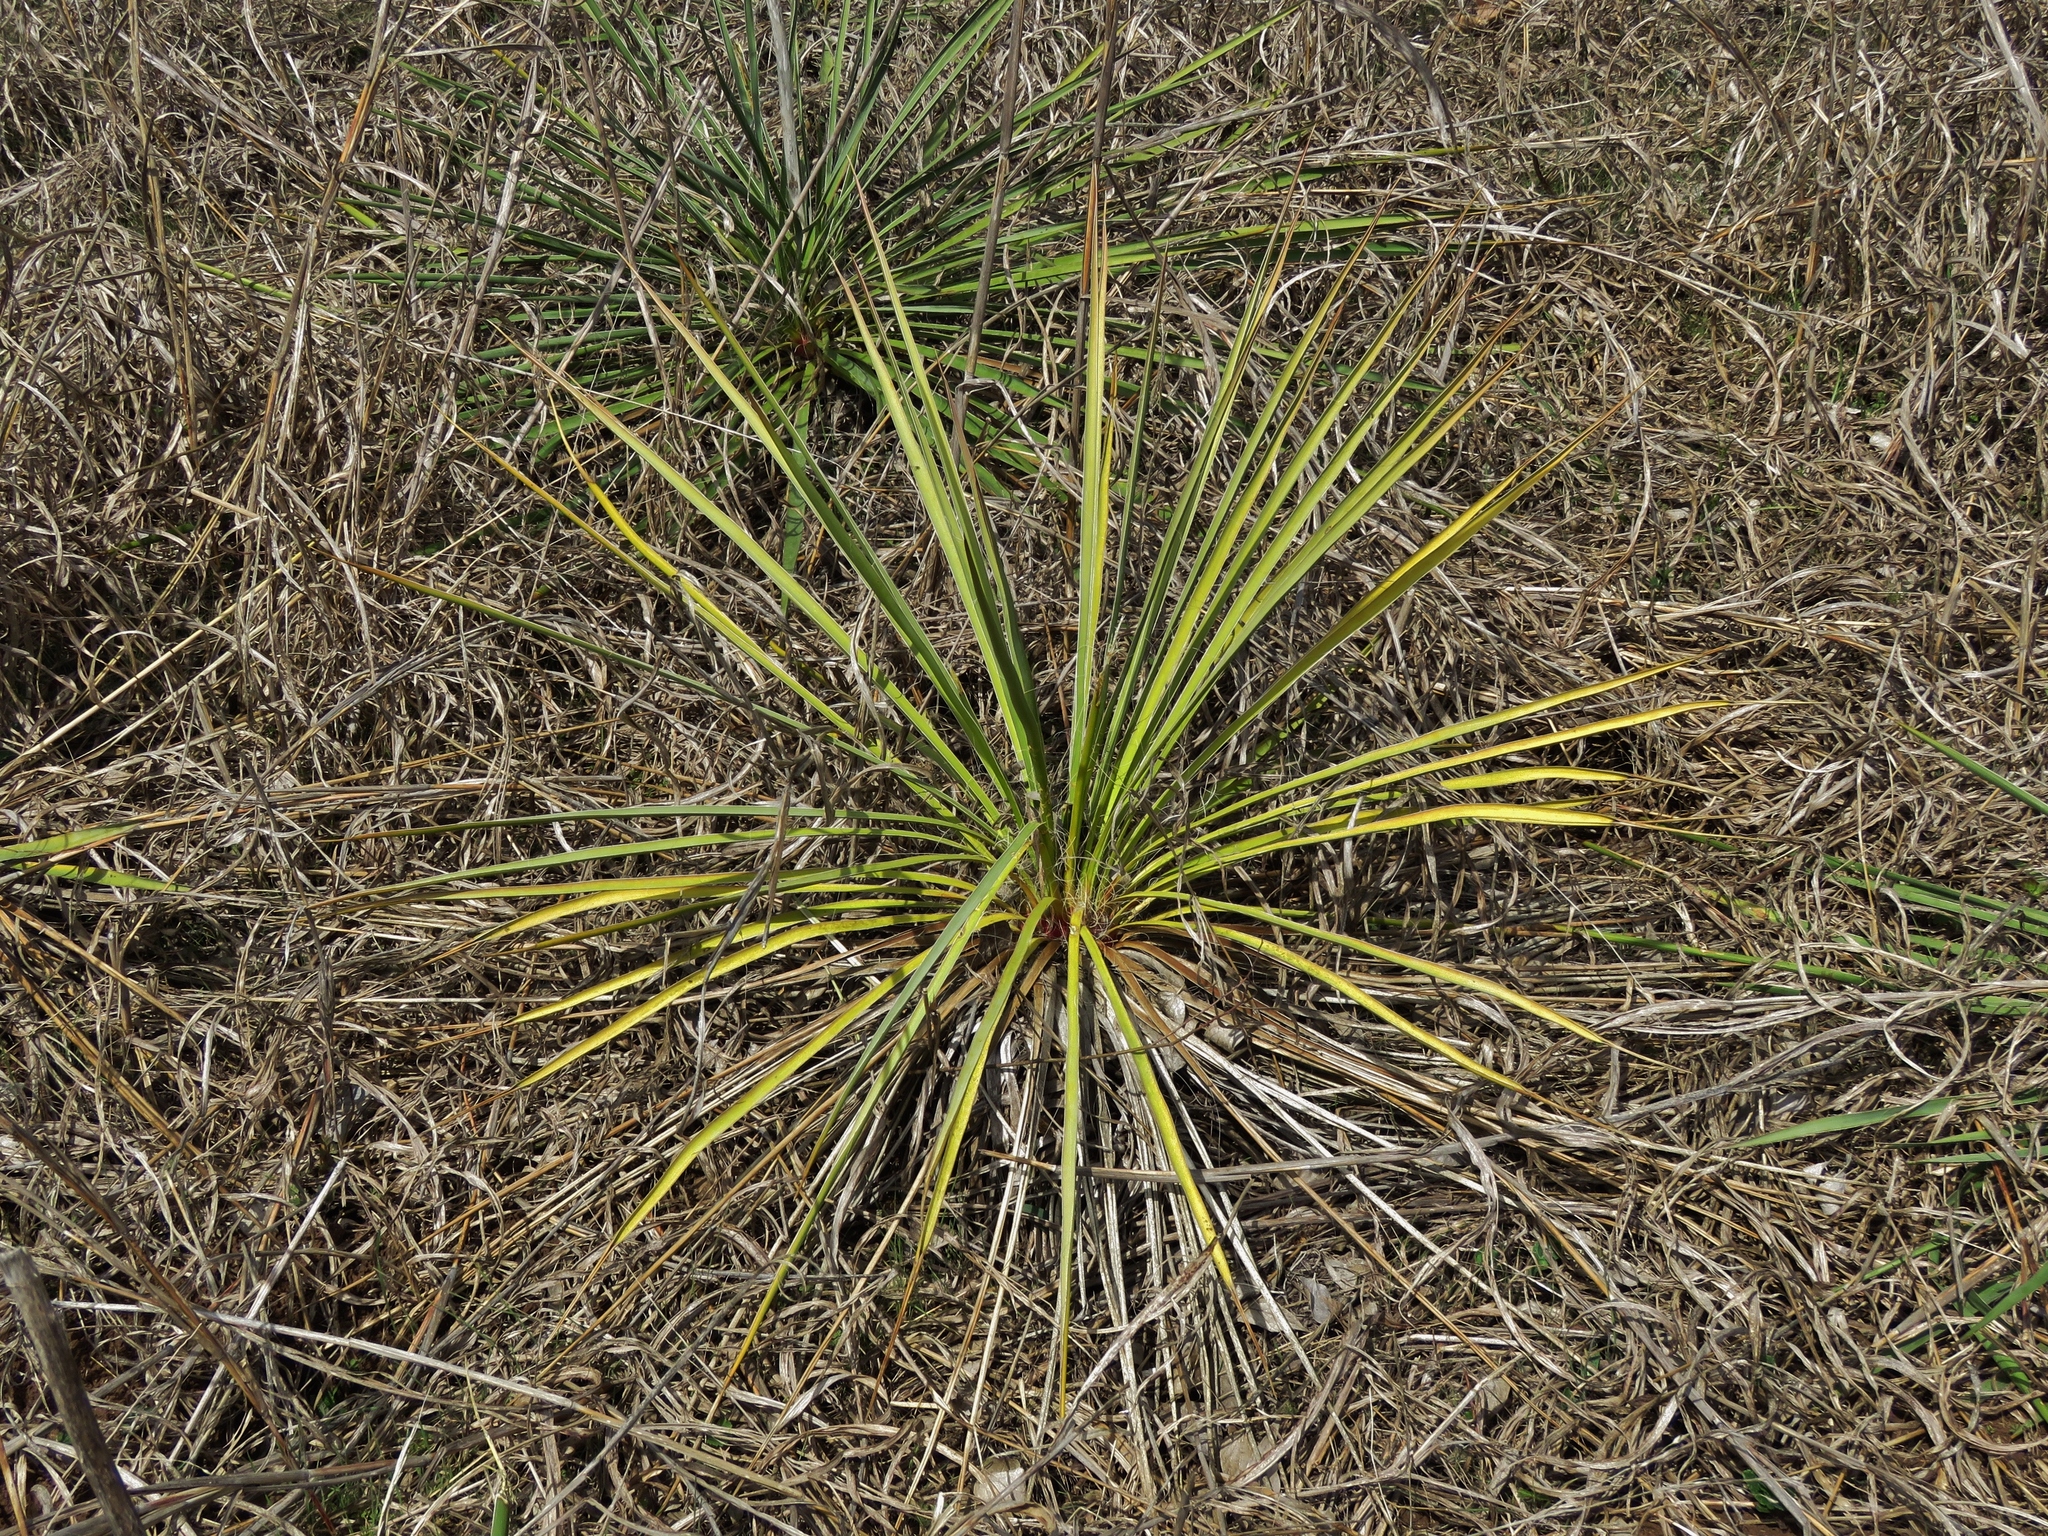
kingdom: Plantae
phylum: Tracheophyta
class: Liliopsida
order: Asparagales
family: Asparagaceae
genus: Yucca
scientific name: Yucca arkansana
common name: Arkansas yucca
